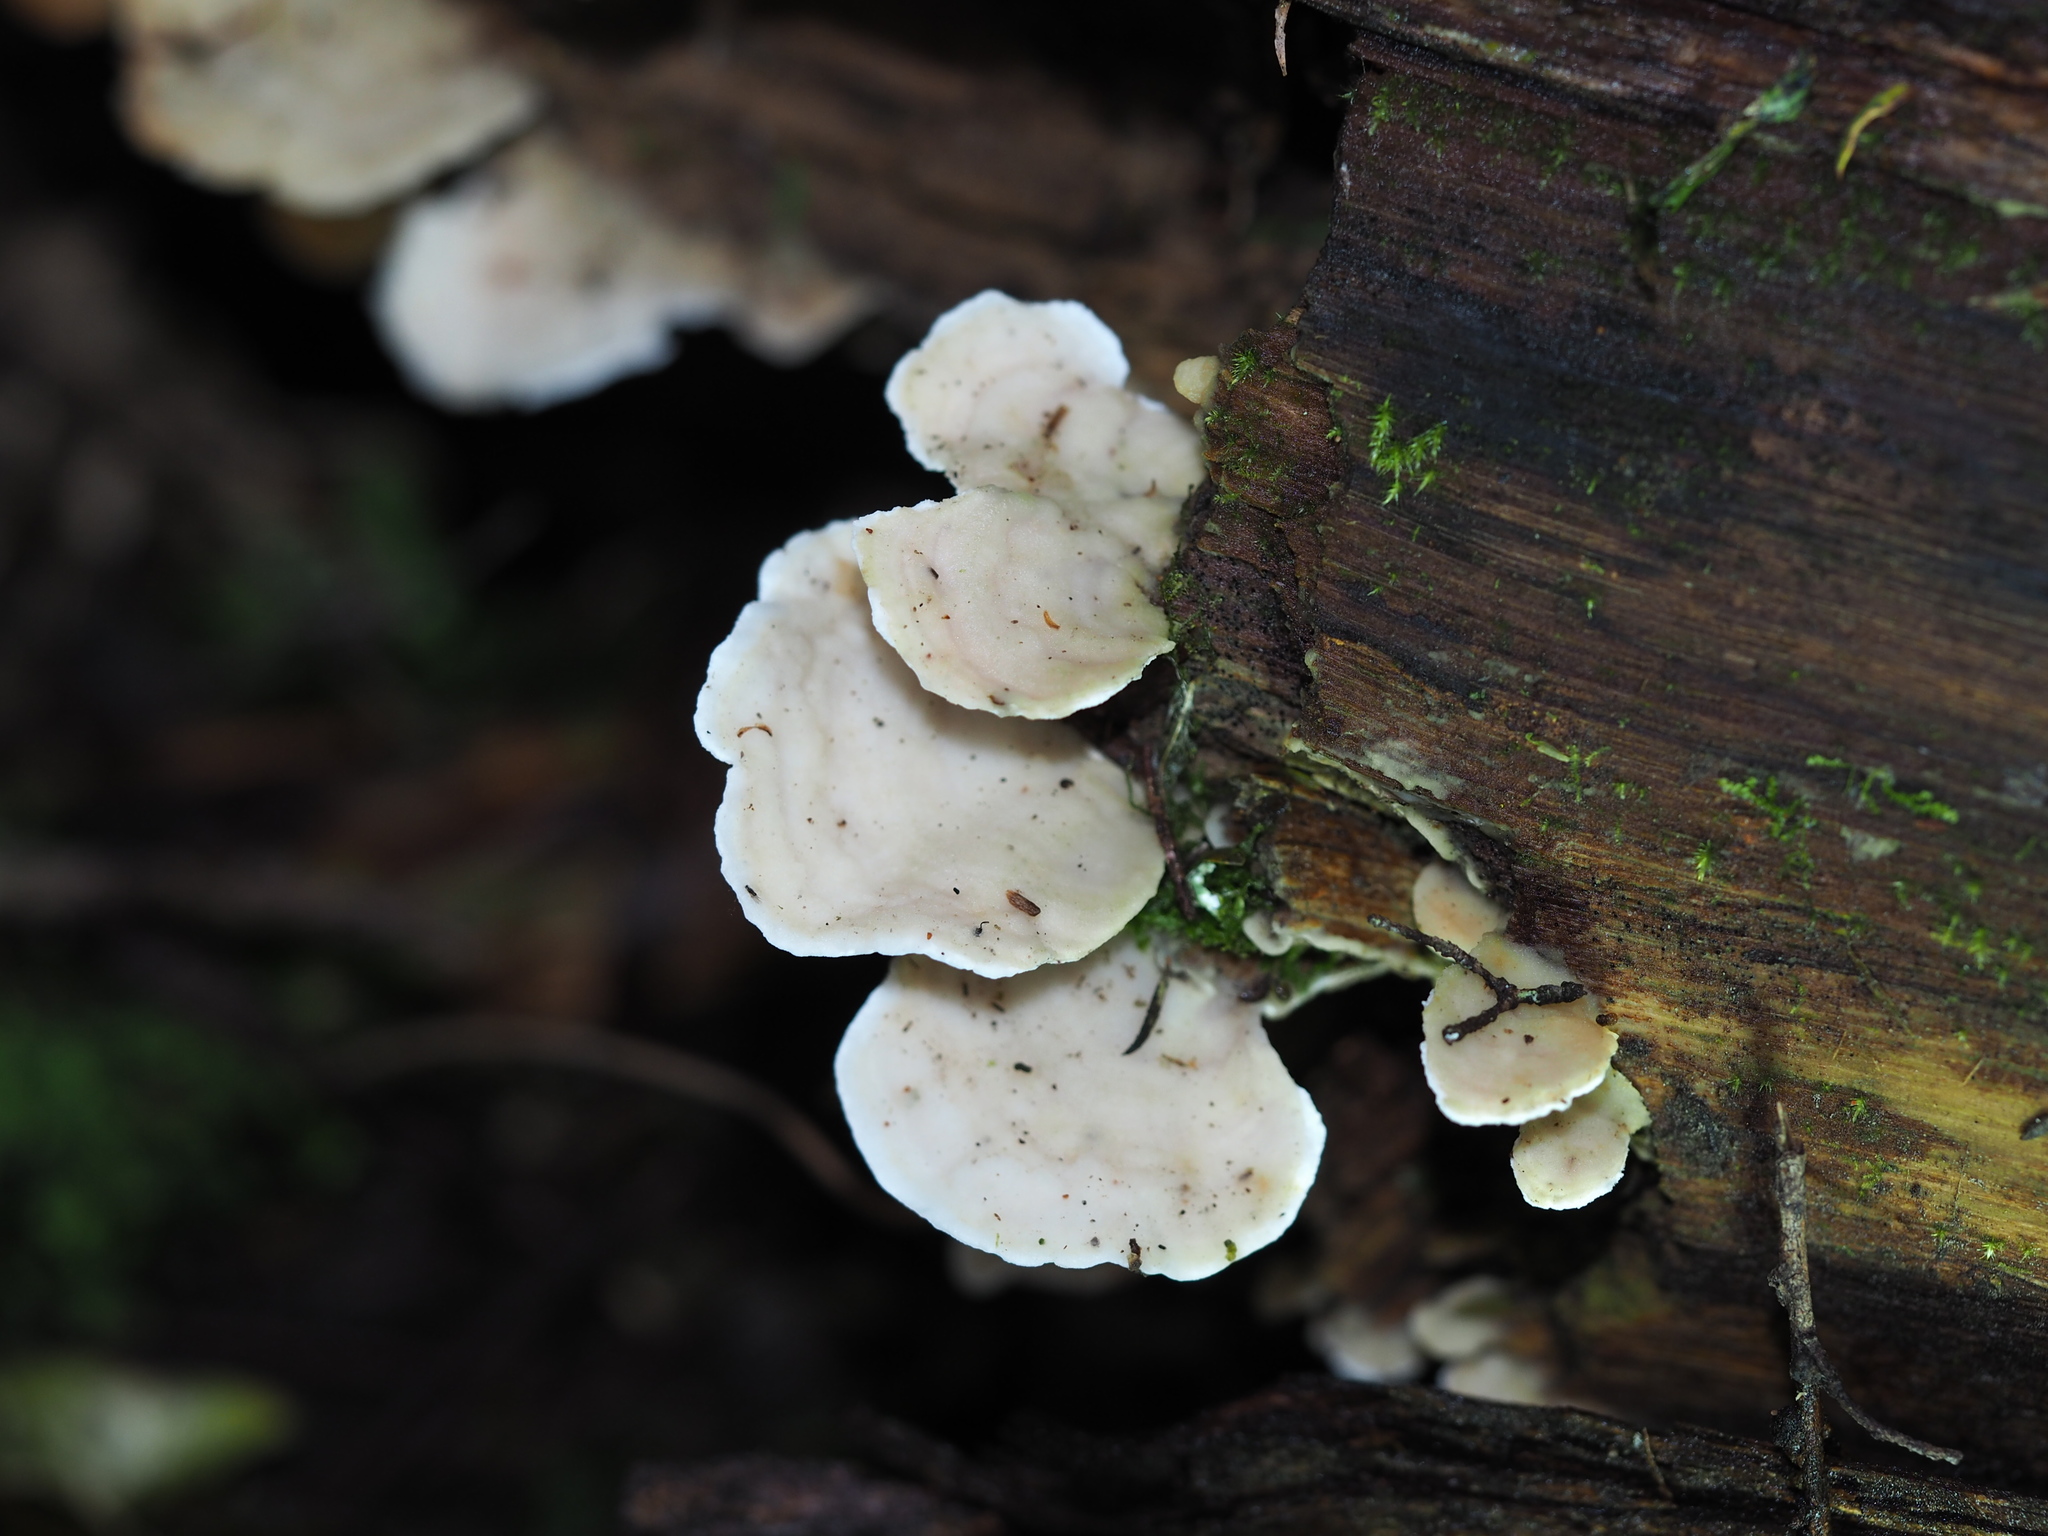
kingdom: Fungi
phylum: Basidiomycota
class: Agaricomycetes
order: Polyporales
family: Irpicaceae
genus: Vitreoporus
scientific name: Vitreoporus dichrous
